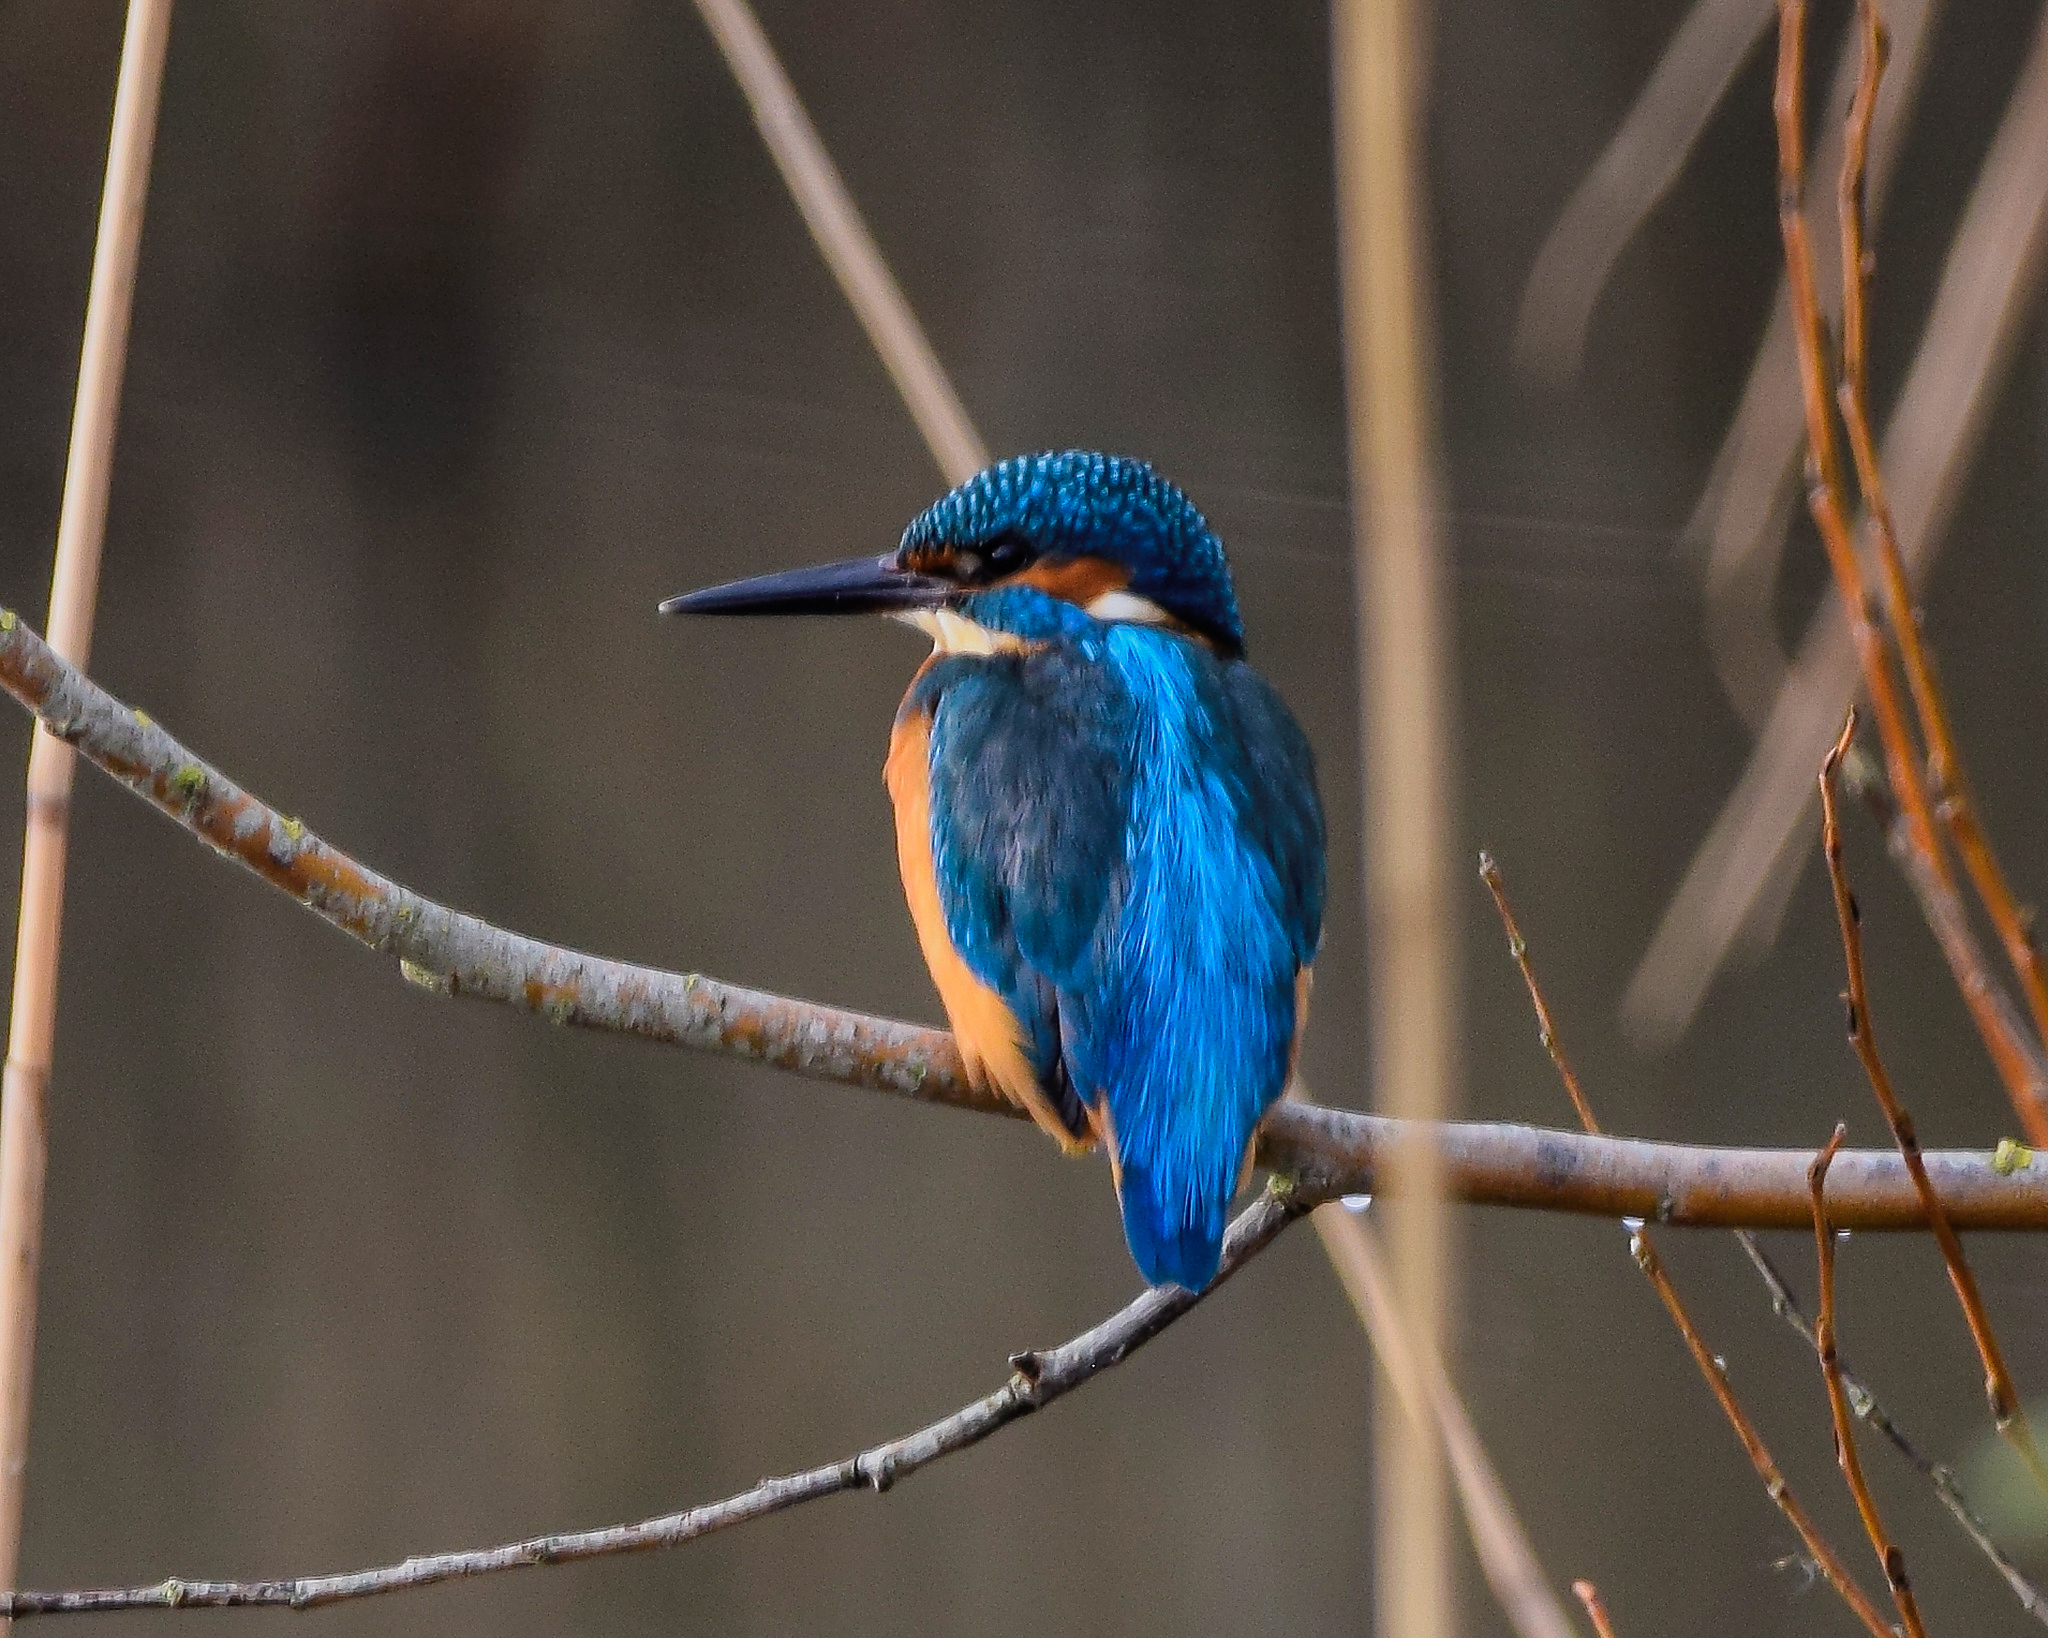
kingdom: Animalia
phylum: Chordata
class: Aves
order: Coraciiformes
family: Alcedinidae
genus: Alcedo
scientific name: Alcedo atthis
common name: Common kingfisher
